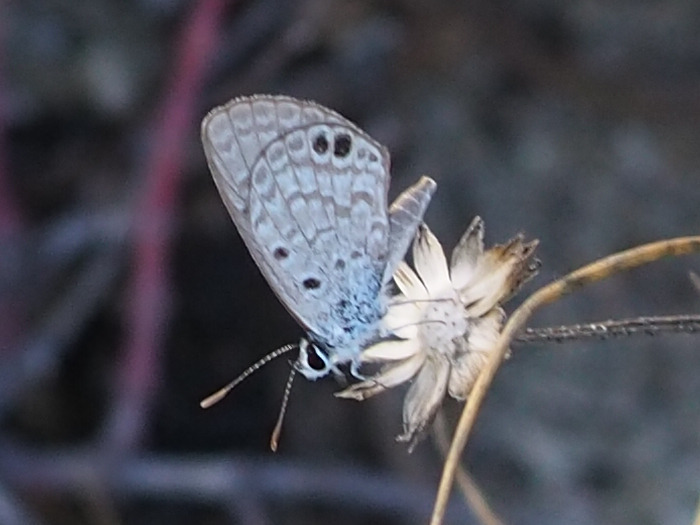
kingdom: Animalia
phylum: Arthropoda
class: Insecta
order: Lepidoptera
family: Lycaenidae
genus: Hemiargus
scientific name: Hemiargus ceraunus
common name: Ceraunus blue
